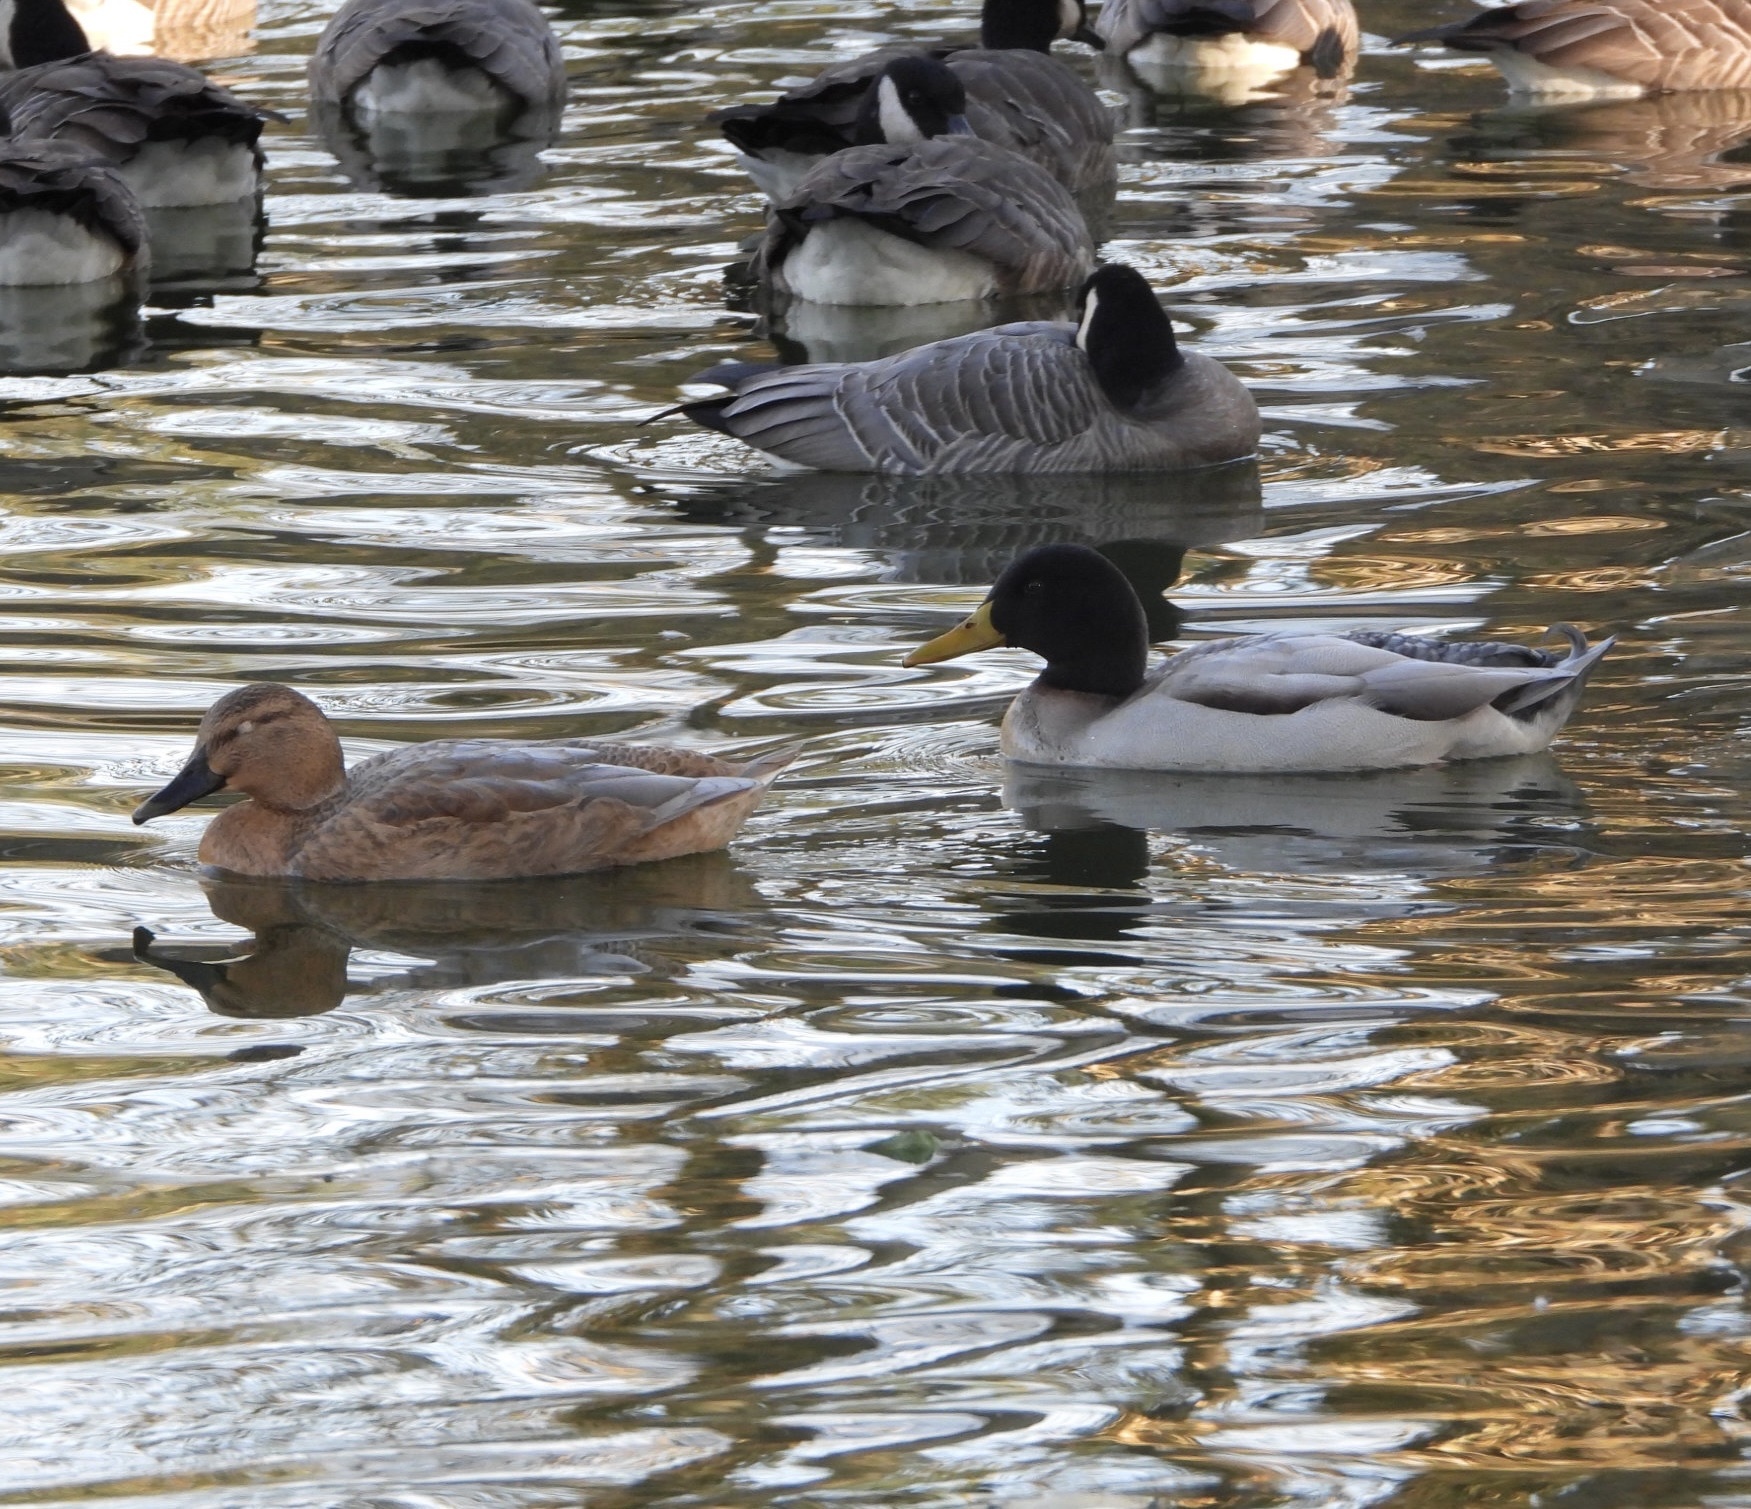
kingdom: Animalia
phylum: Chordata
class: Aves
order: Anseriformes
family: Anatidae
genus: Anas
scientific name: Anas platyrhynchos
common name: Mallard
